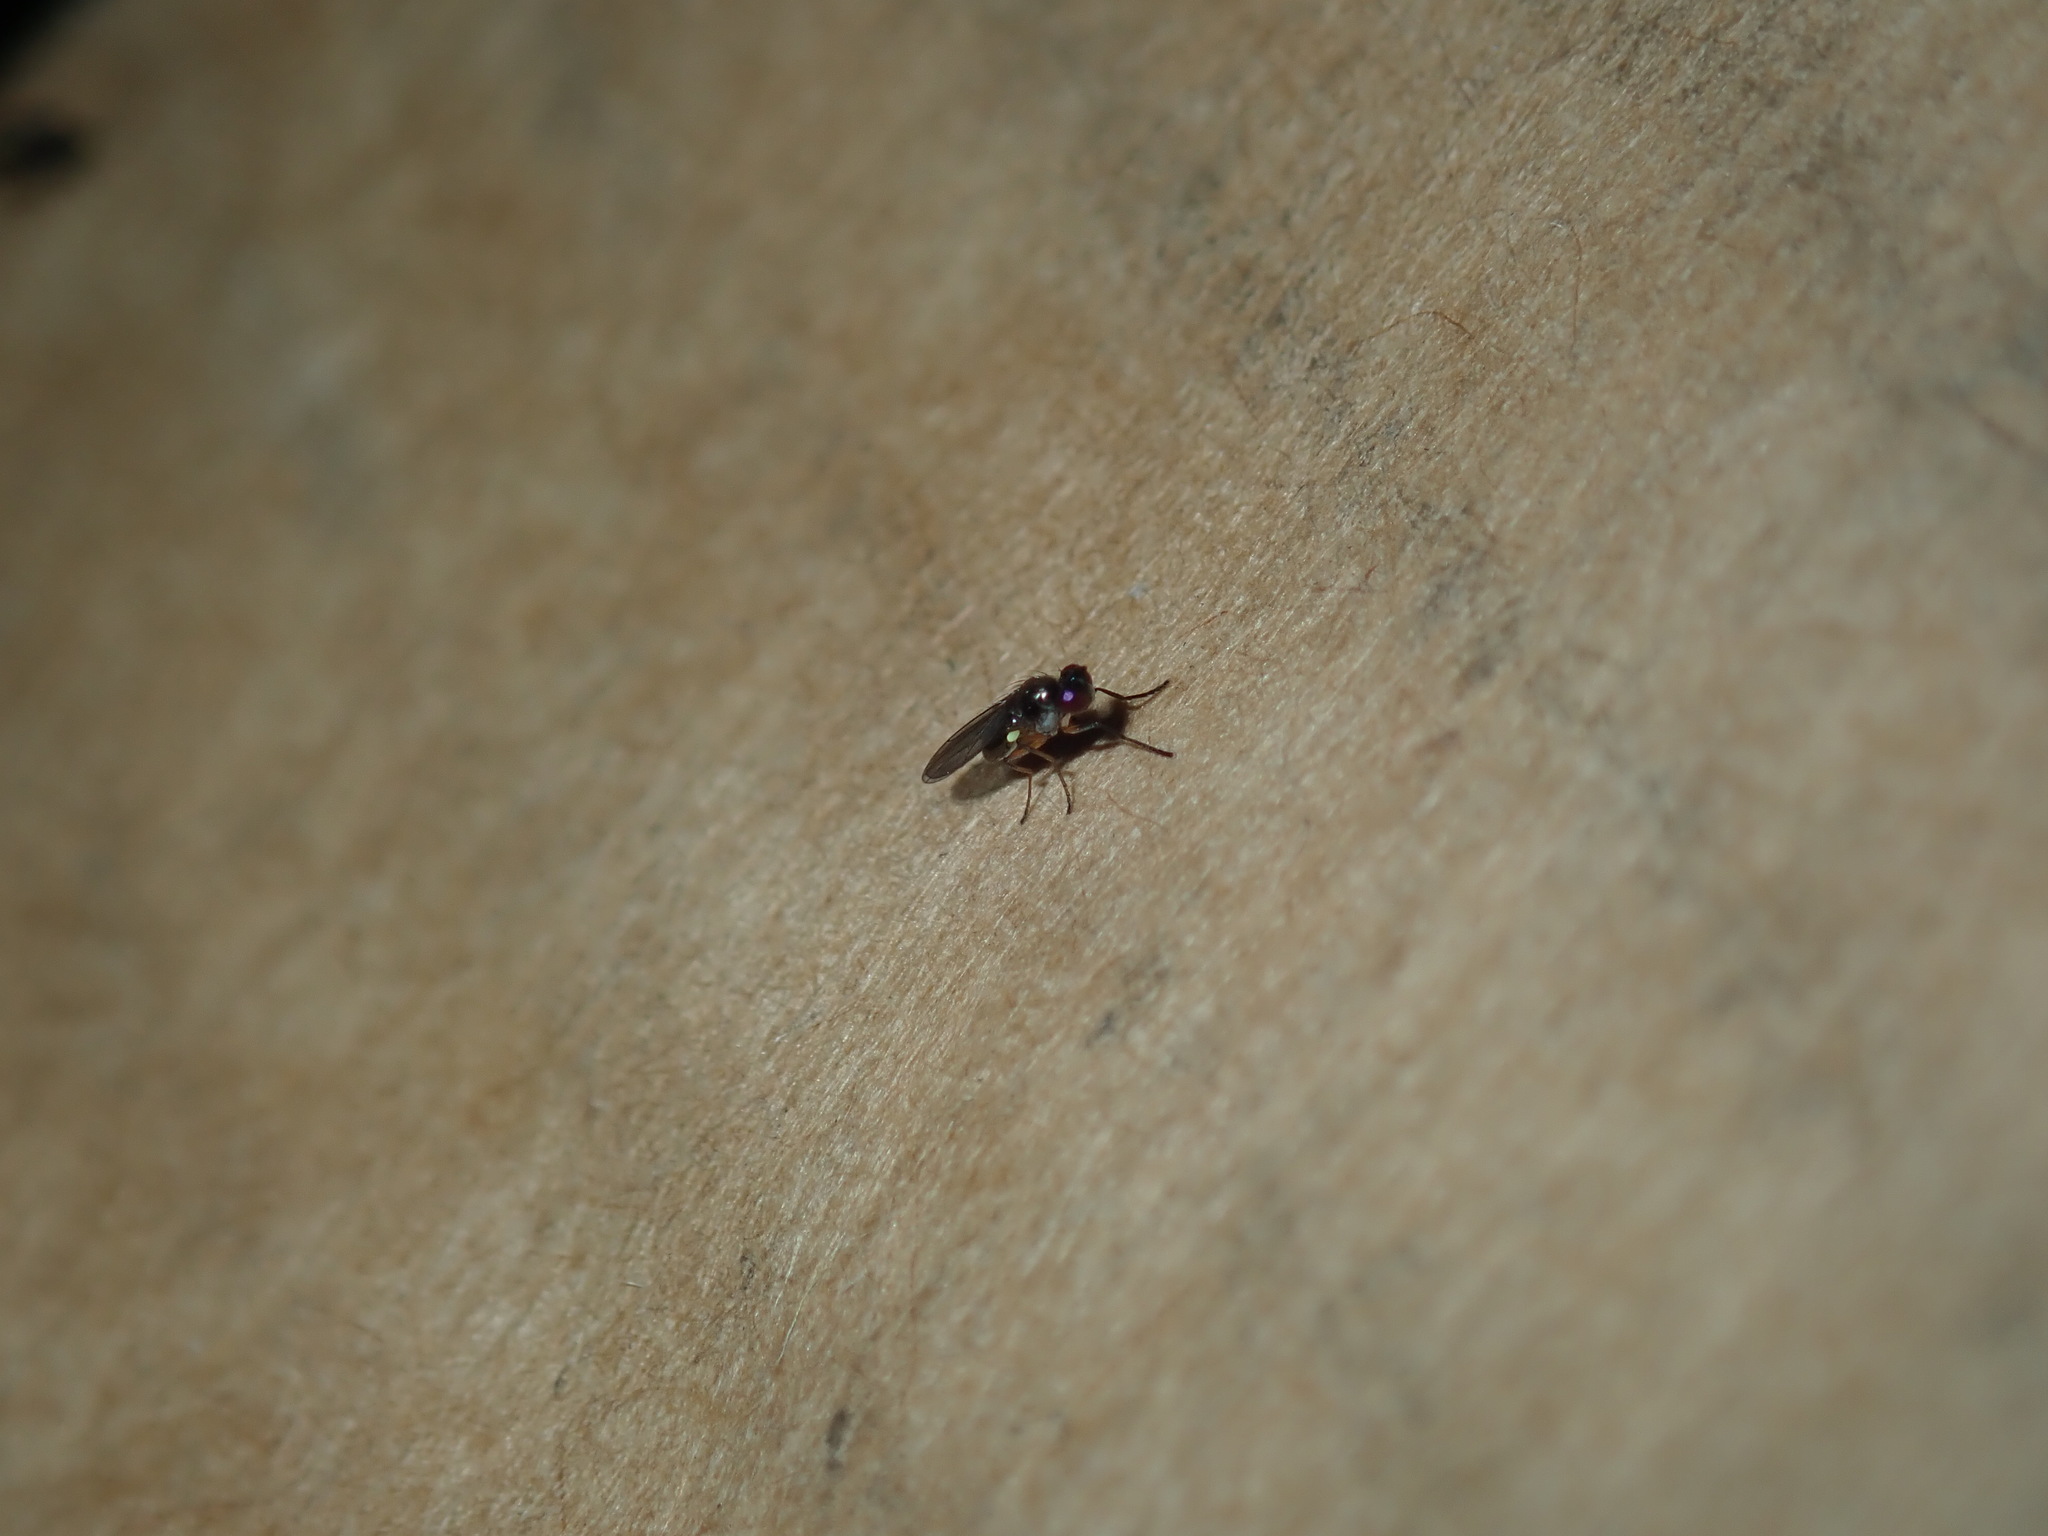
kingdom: Animalia
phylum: Arthropoda
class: Insecta
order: Diptera
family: Ephydridae
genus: Hydrellia
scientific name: Hydrellia tritici
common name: Shore fly
